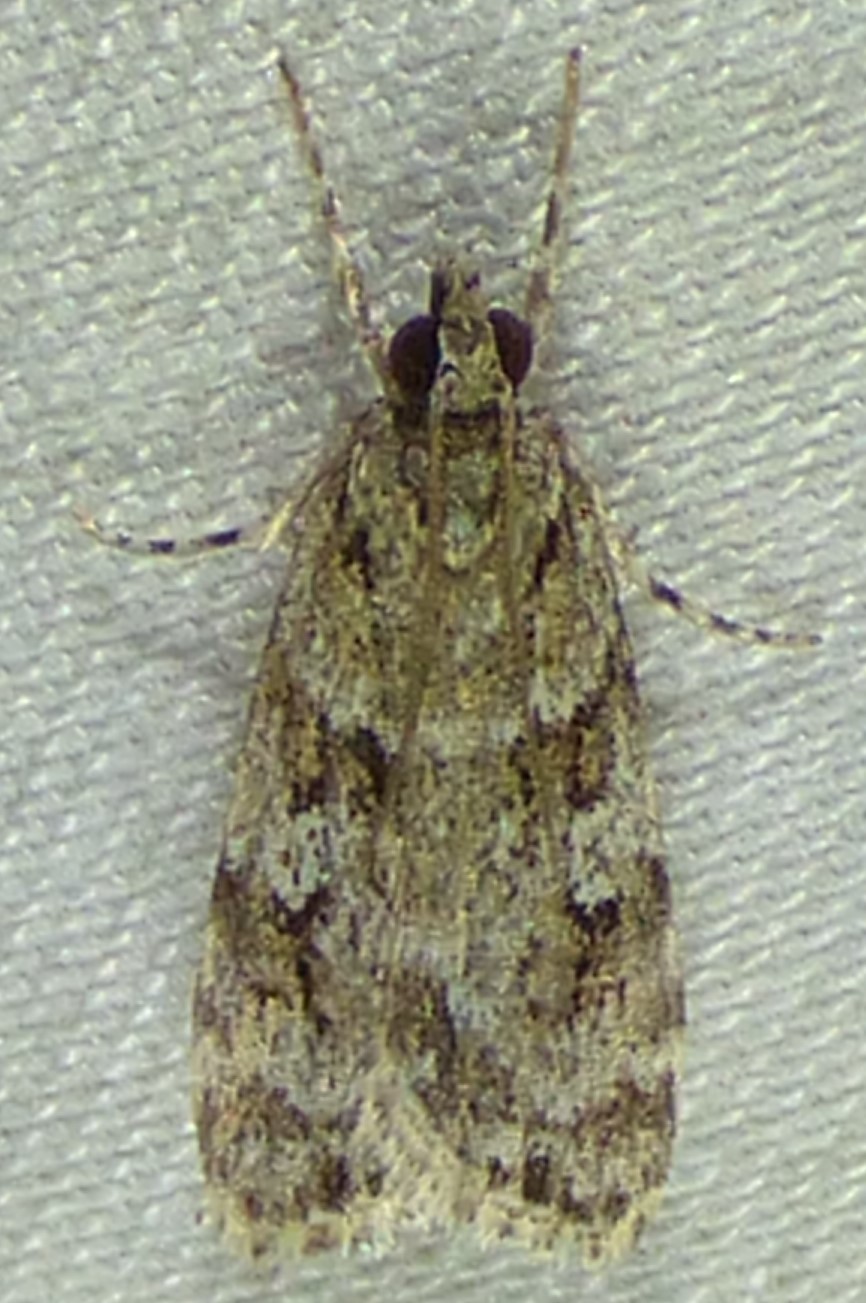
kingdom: Animalia
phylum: Arthropoda
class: Insecta
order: Lepidoptera
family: Crambidae
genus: Scoparia
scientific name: Scoparia biplagialis
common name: Double-striped scoparia moth
